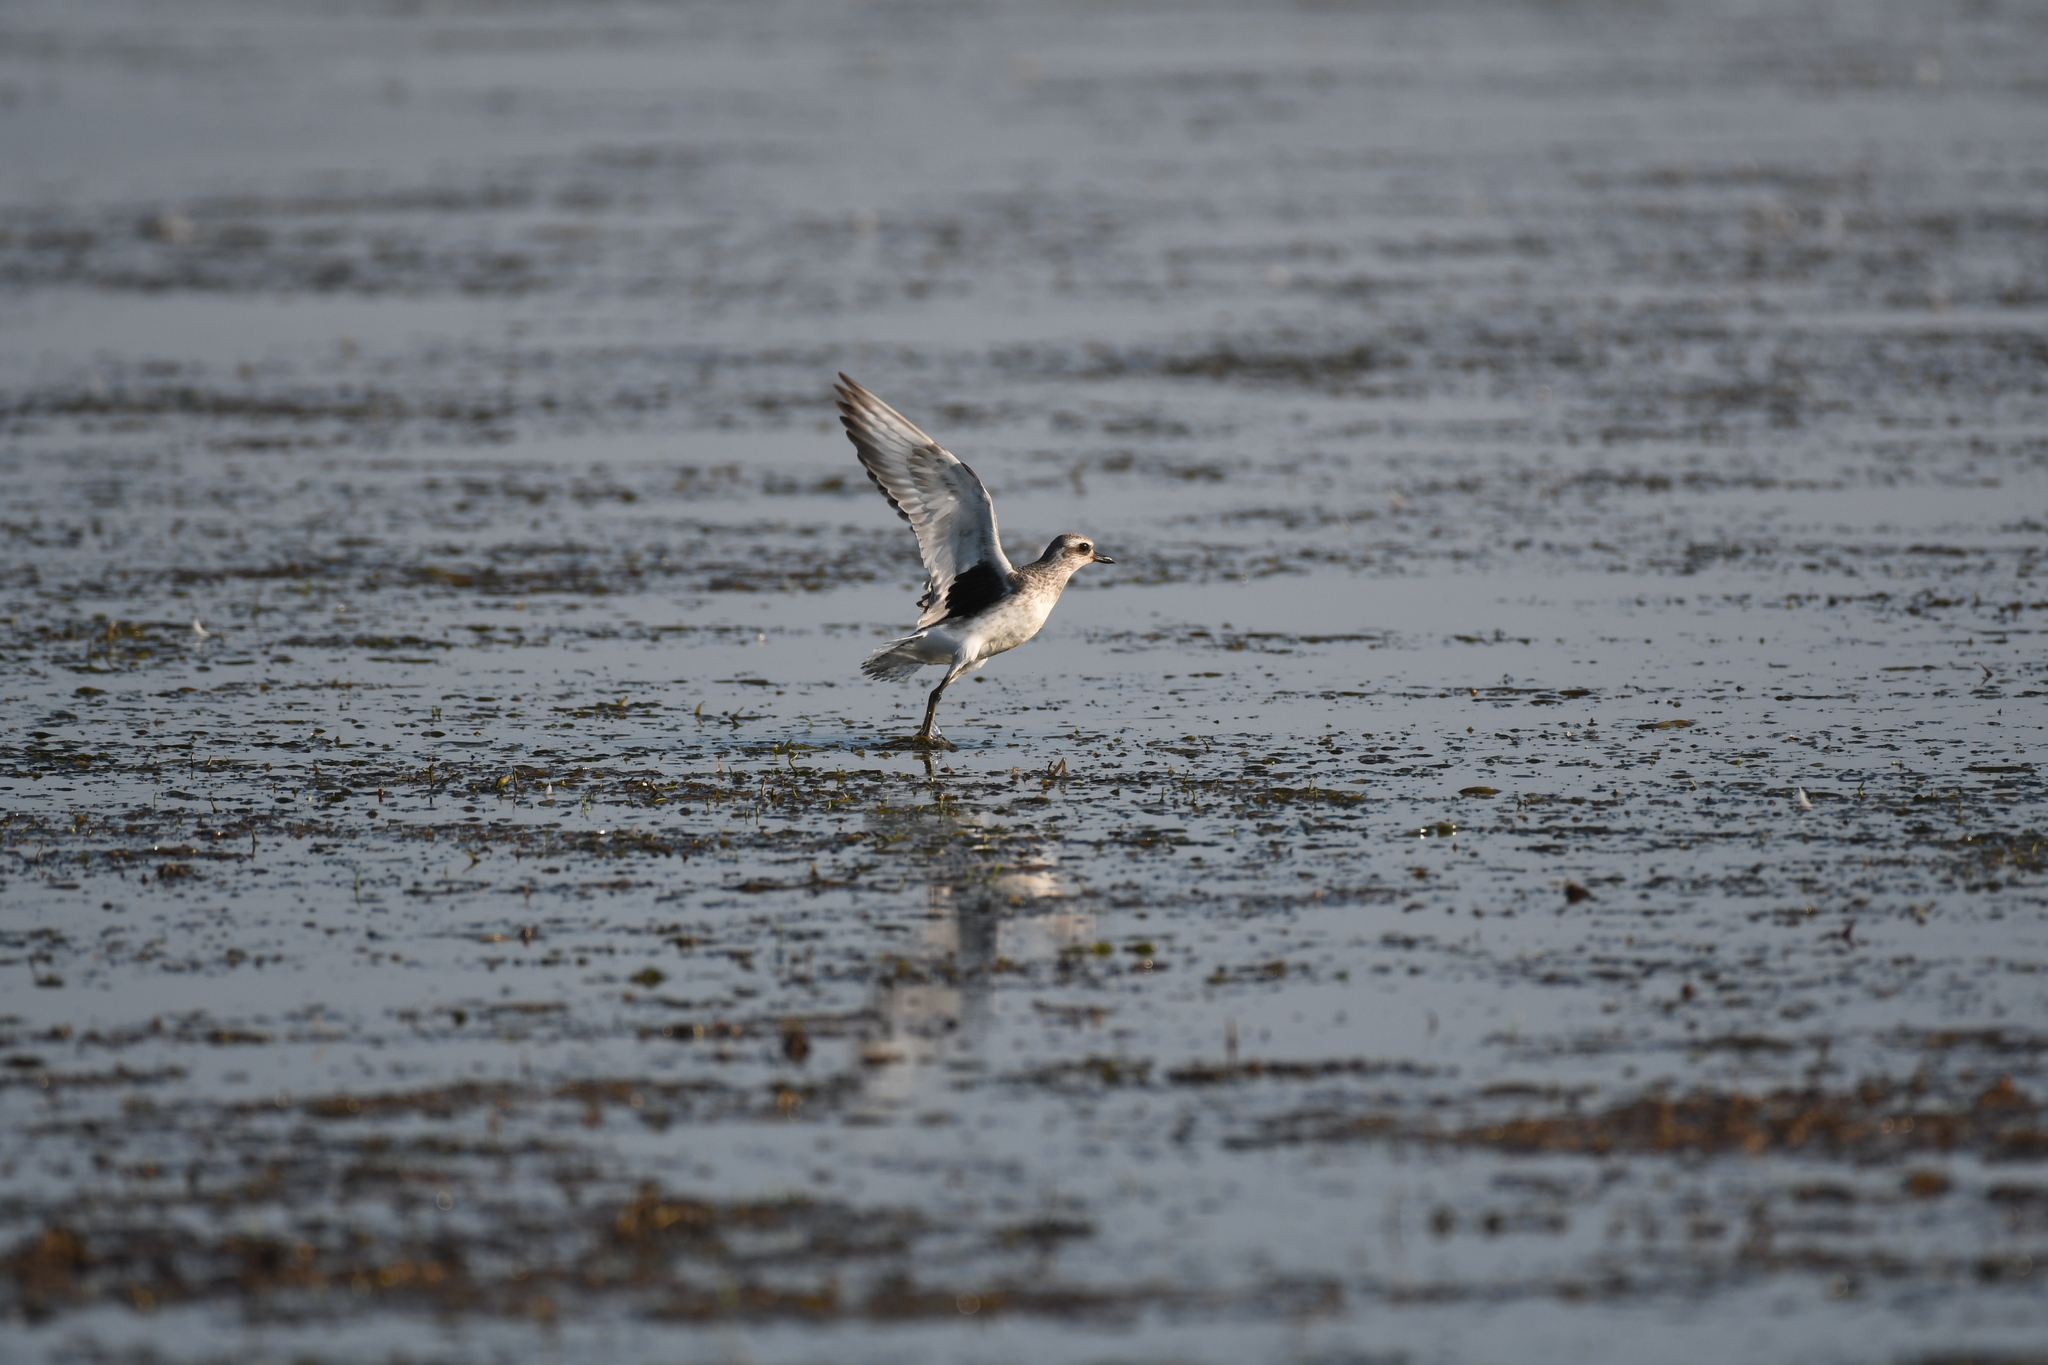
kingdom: Animalia
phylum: Chordata
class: Aves
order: Charadriiformes
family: Charadriidae
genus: Pluvialis
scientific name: Pluvialis squatarola
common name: Grey plover
